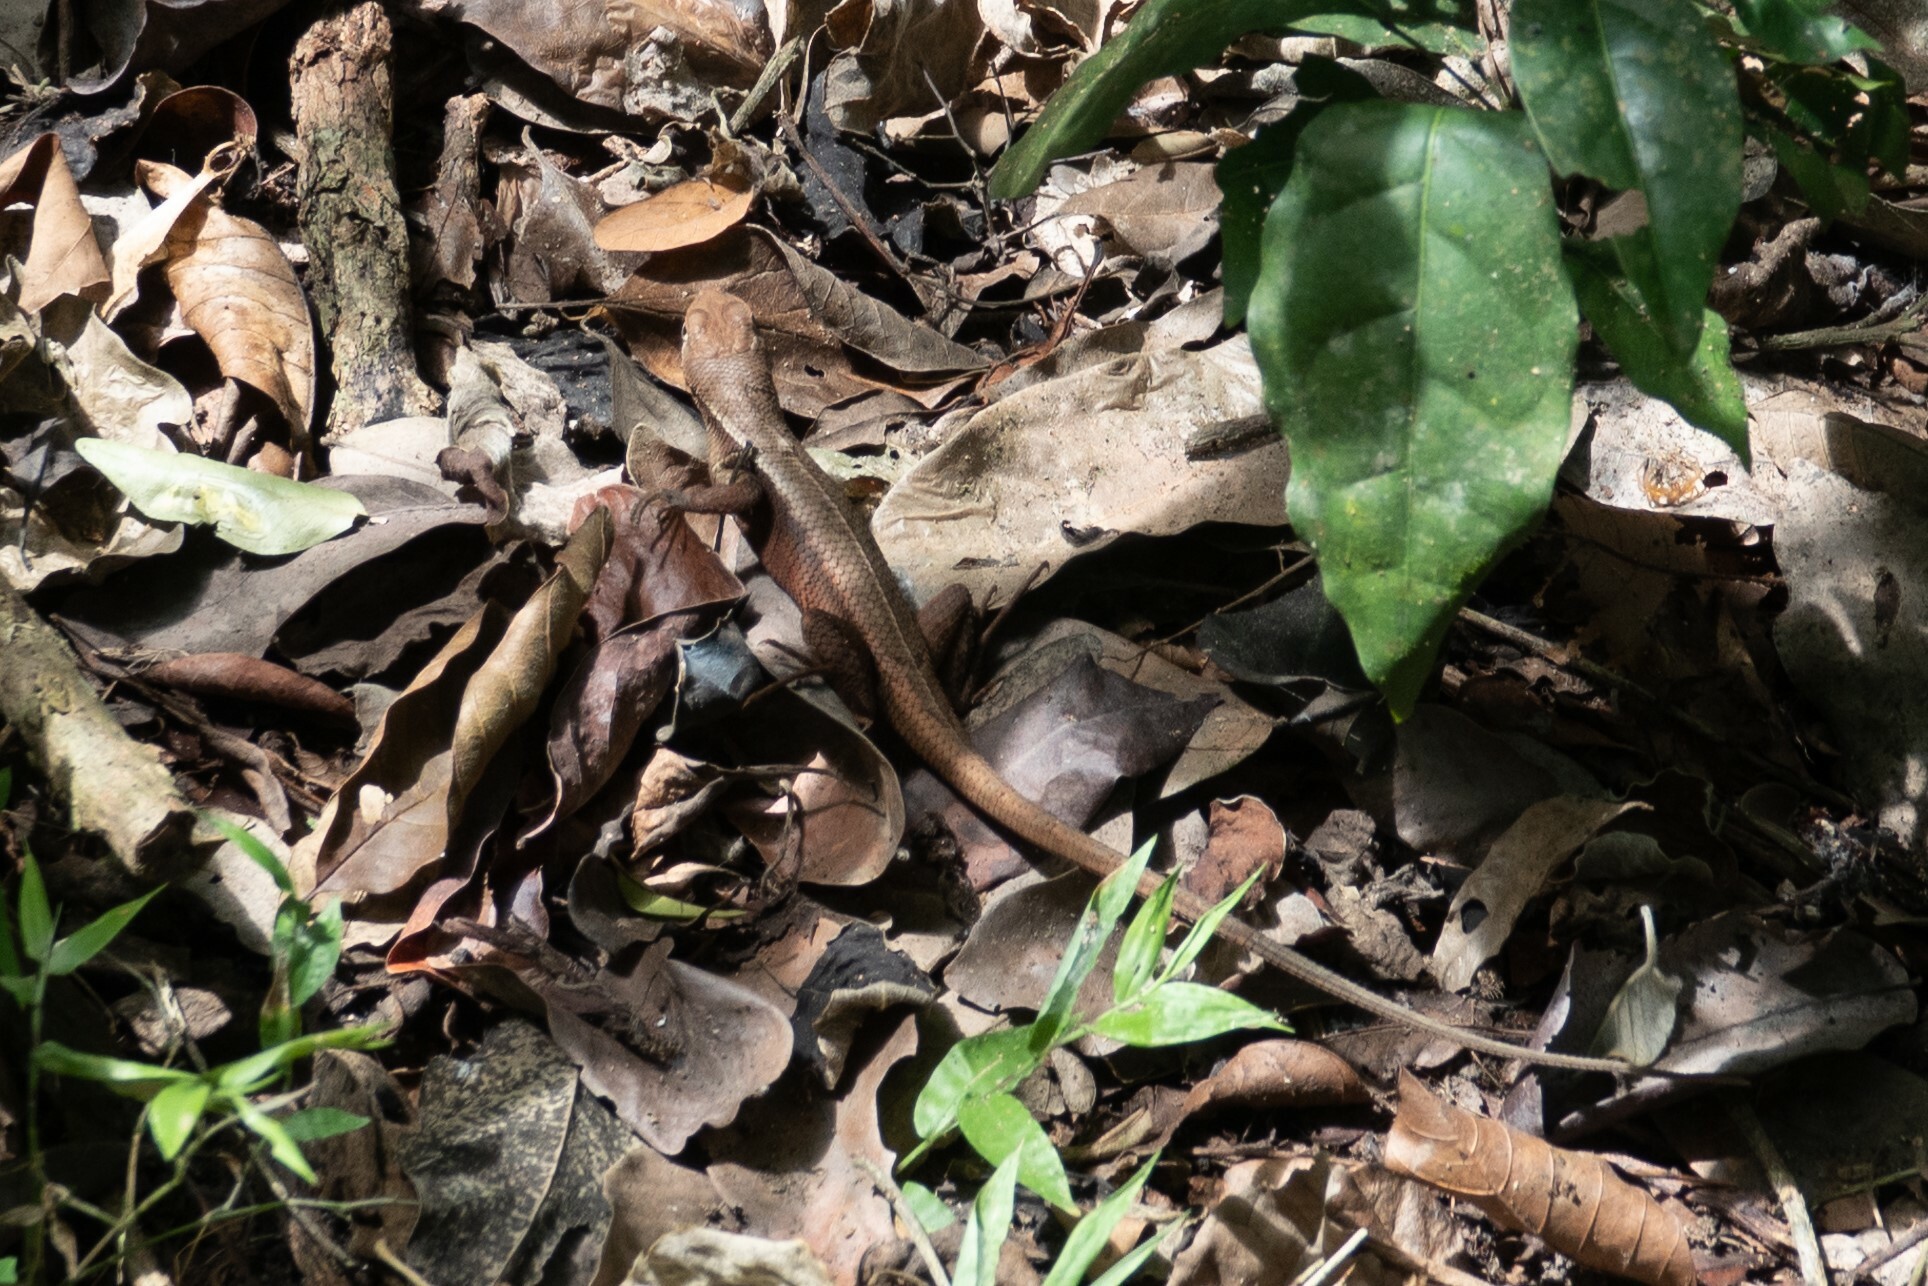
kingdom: Animalia
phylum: Chordata
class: Squamata
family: Tropiduridae
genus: Stenocercus
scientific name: Stenocercus iridescens
